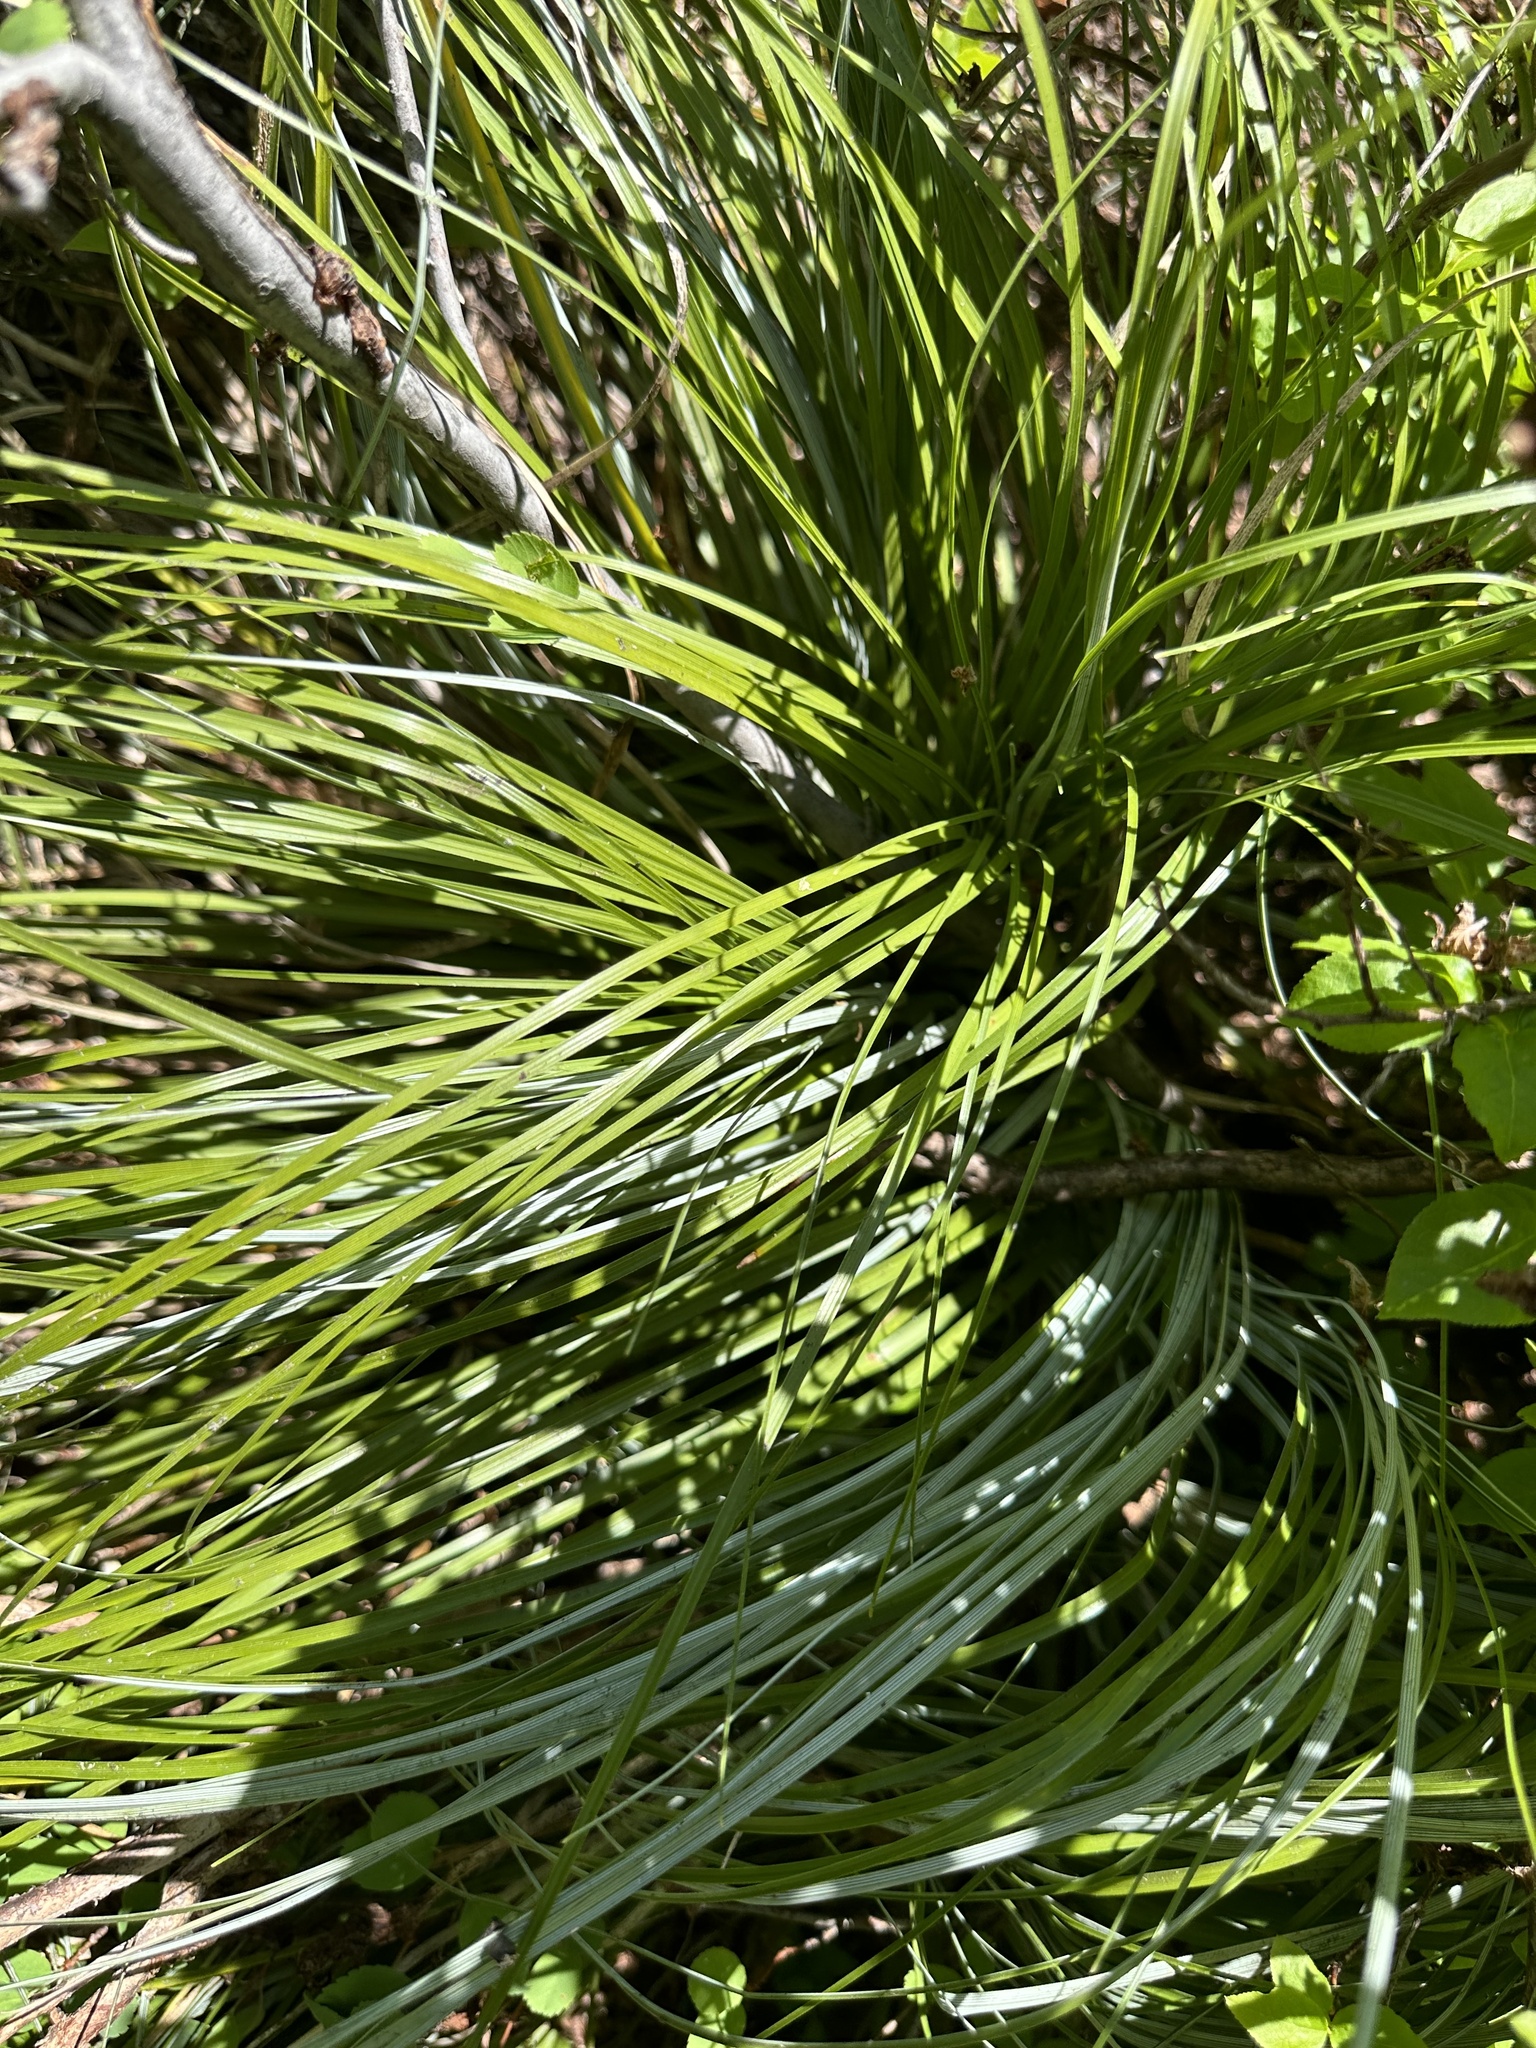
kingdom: Plantae
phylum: Tracheophyta
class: Liliopsida
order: Liliales
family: Melanthiaceae
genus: Xerophyllum
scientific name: Xerophyllum tenax
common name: Bear-grass
